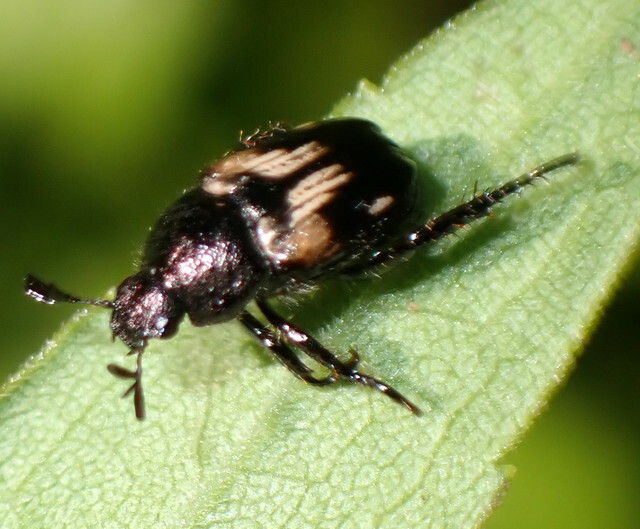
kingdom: Animalia
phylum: Arthropoda
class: Insecta
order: Coleoptera
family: Scarabaeidae
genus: Strigoderma
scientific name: Strigoderma pygmaea
